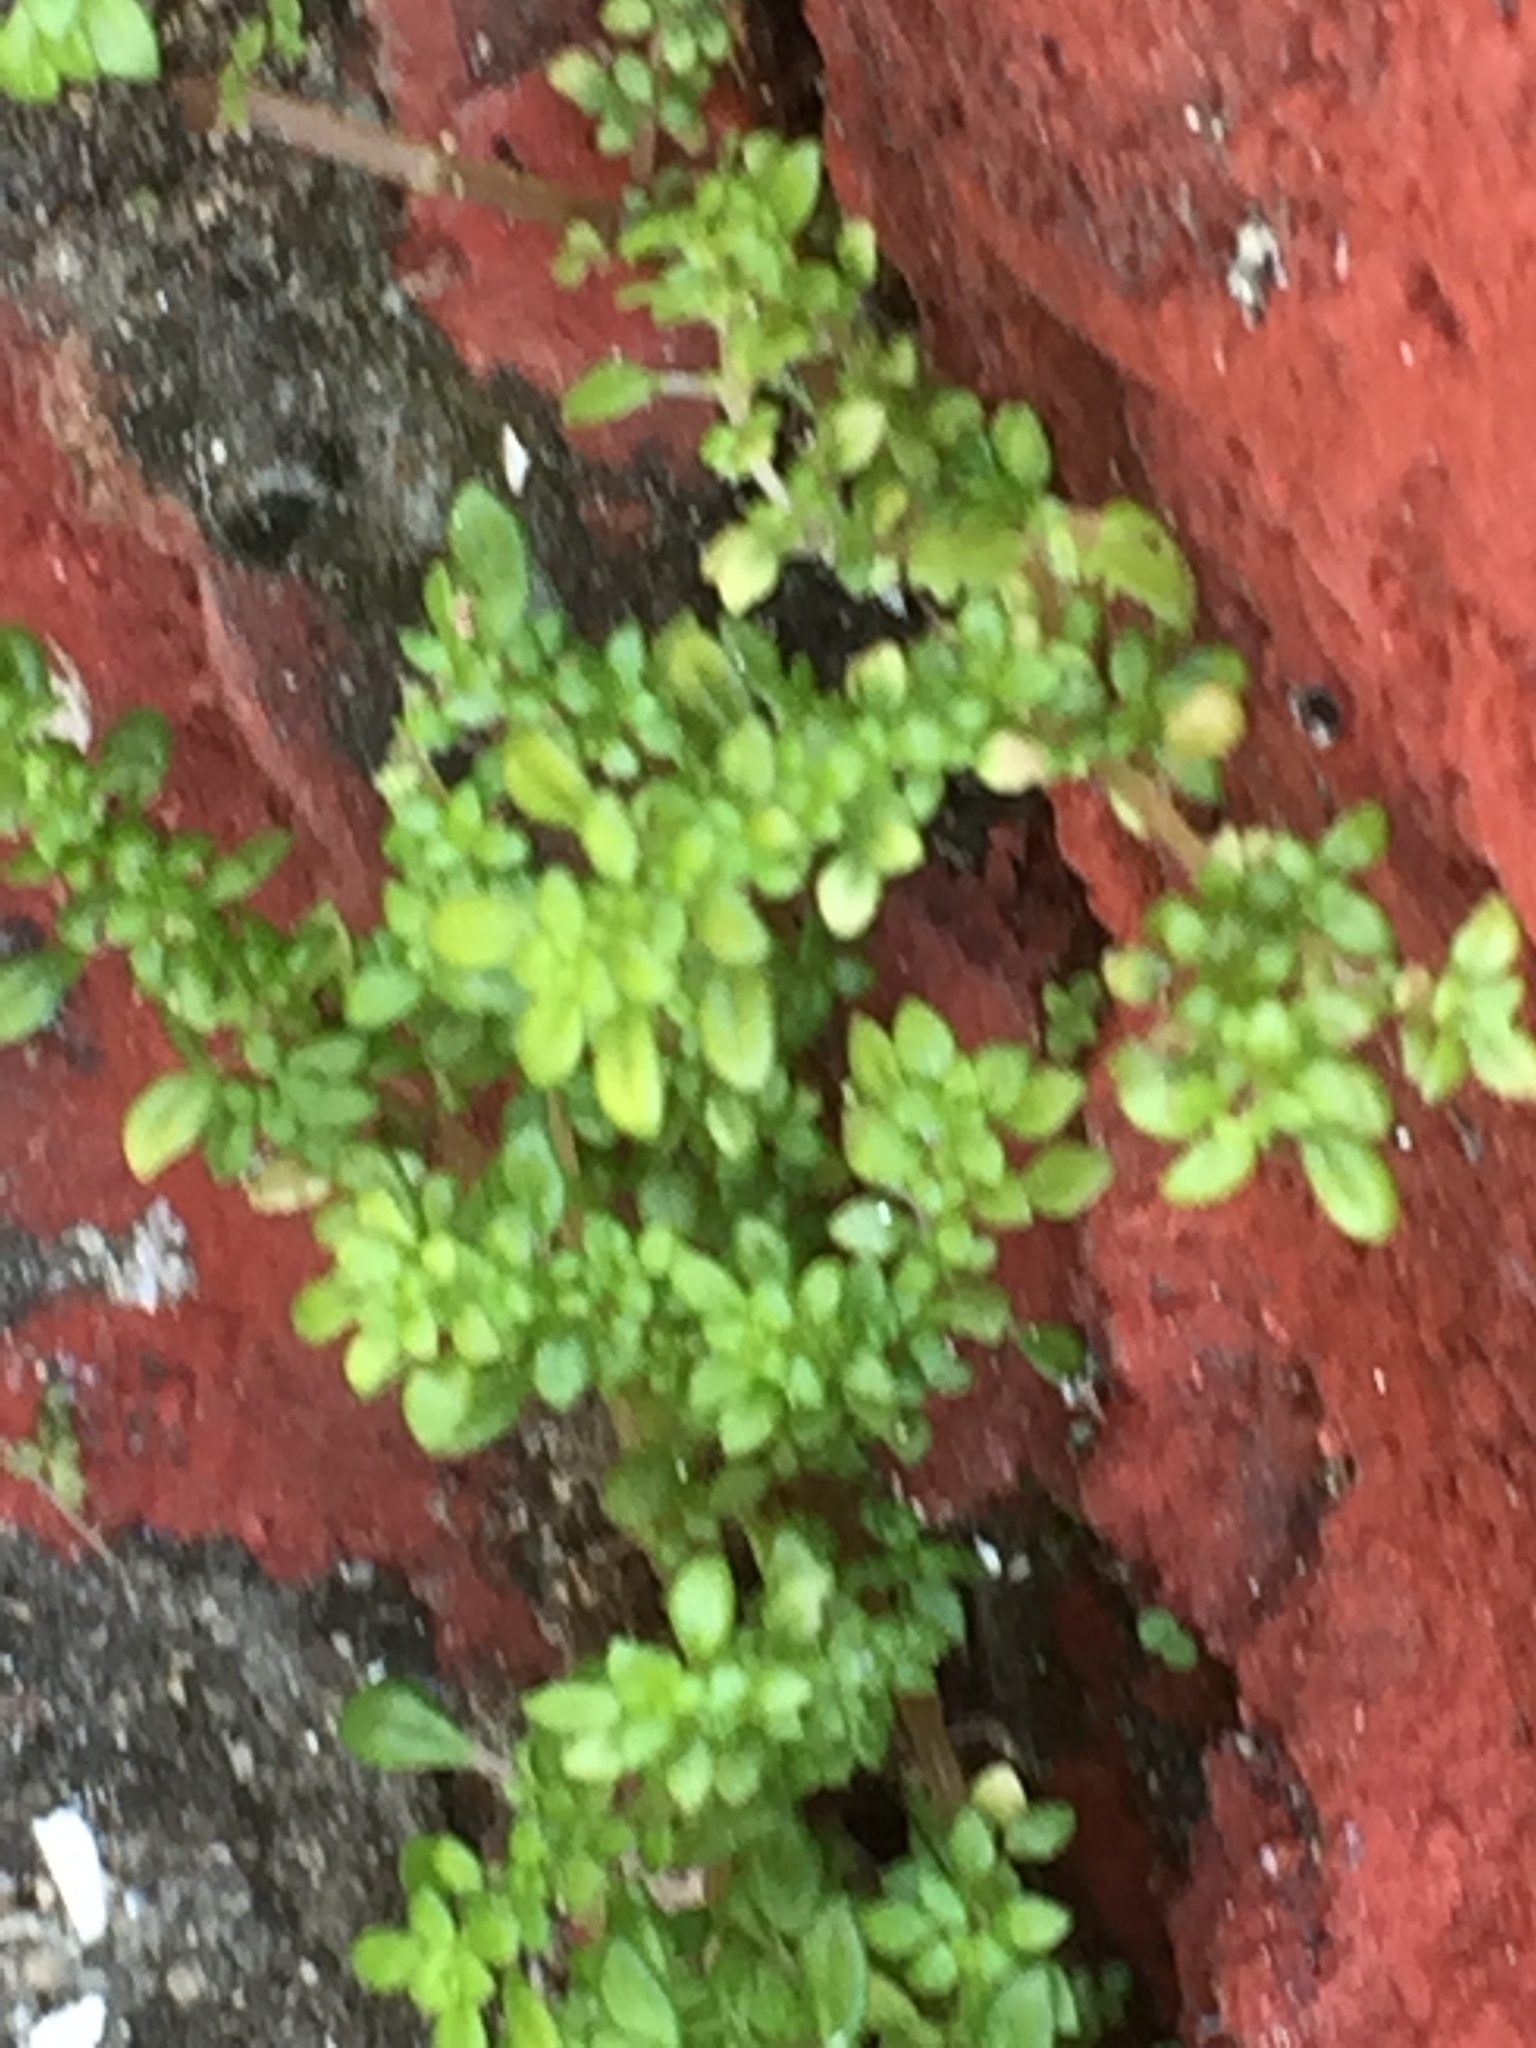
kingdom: Plantae
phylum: Tracheophyta
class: Magnoliopsida
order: Rosales
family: Urticaceae
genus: Pilea
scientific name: Pilea microphylla
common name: Artillery-plant
